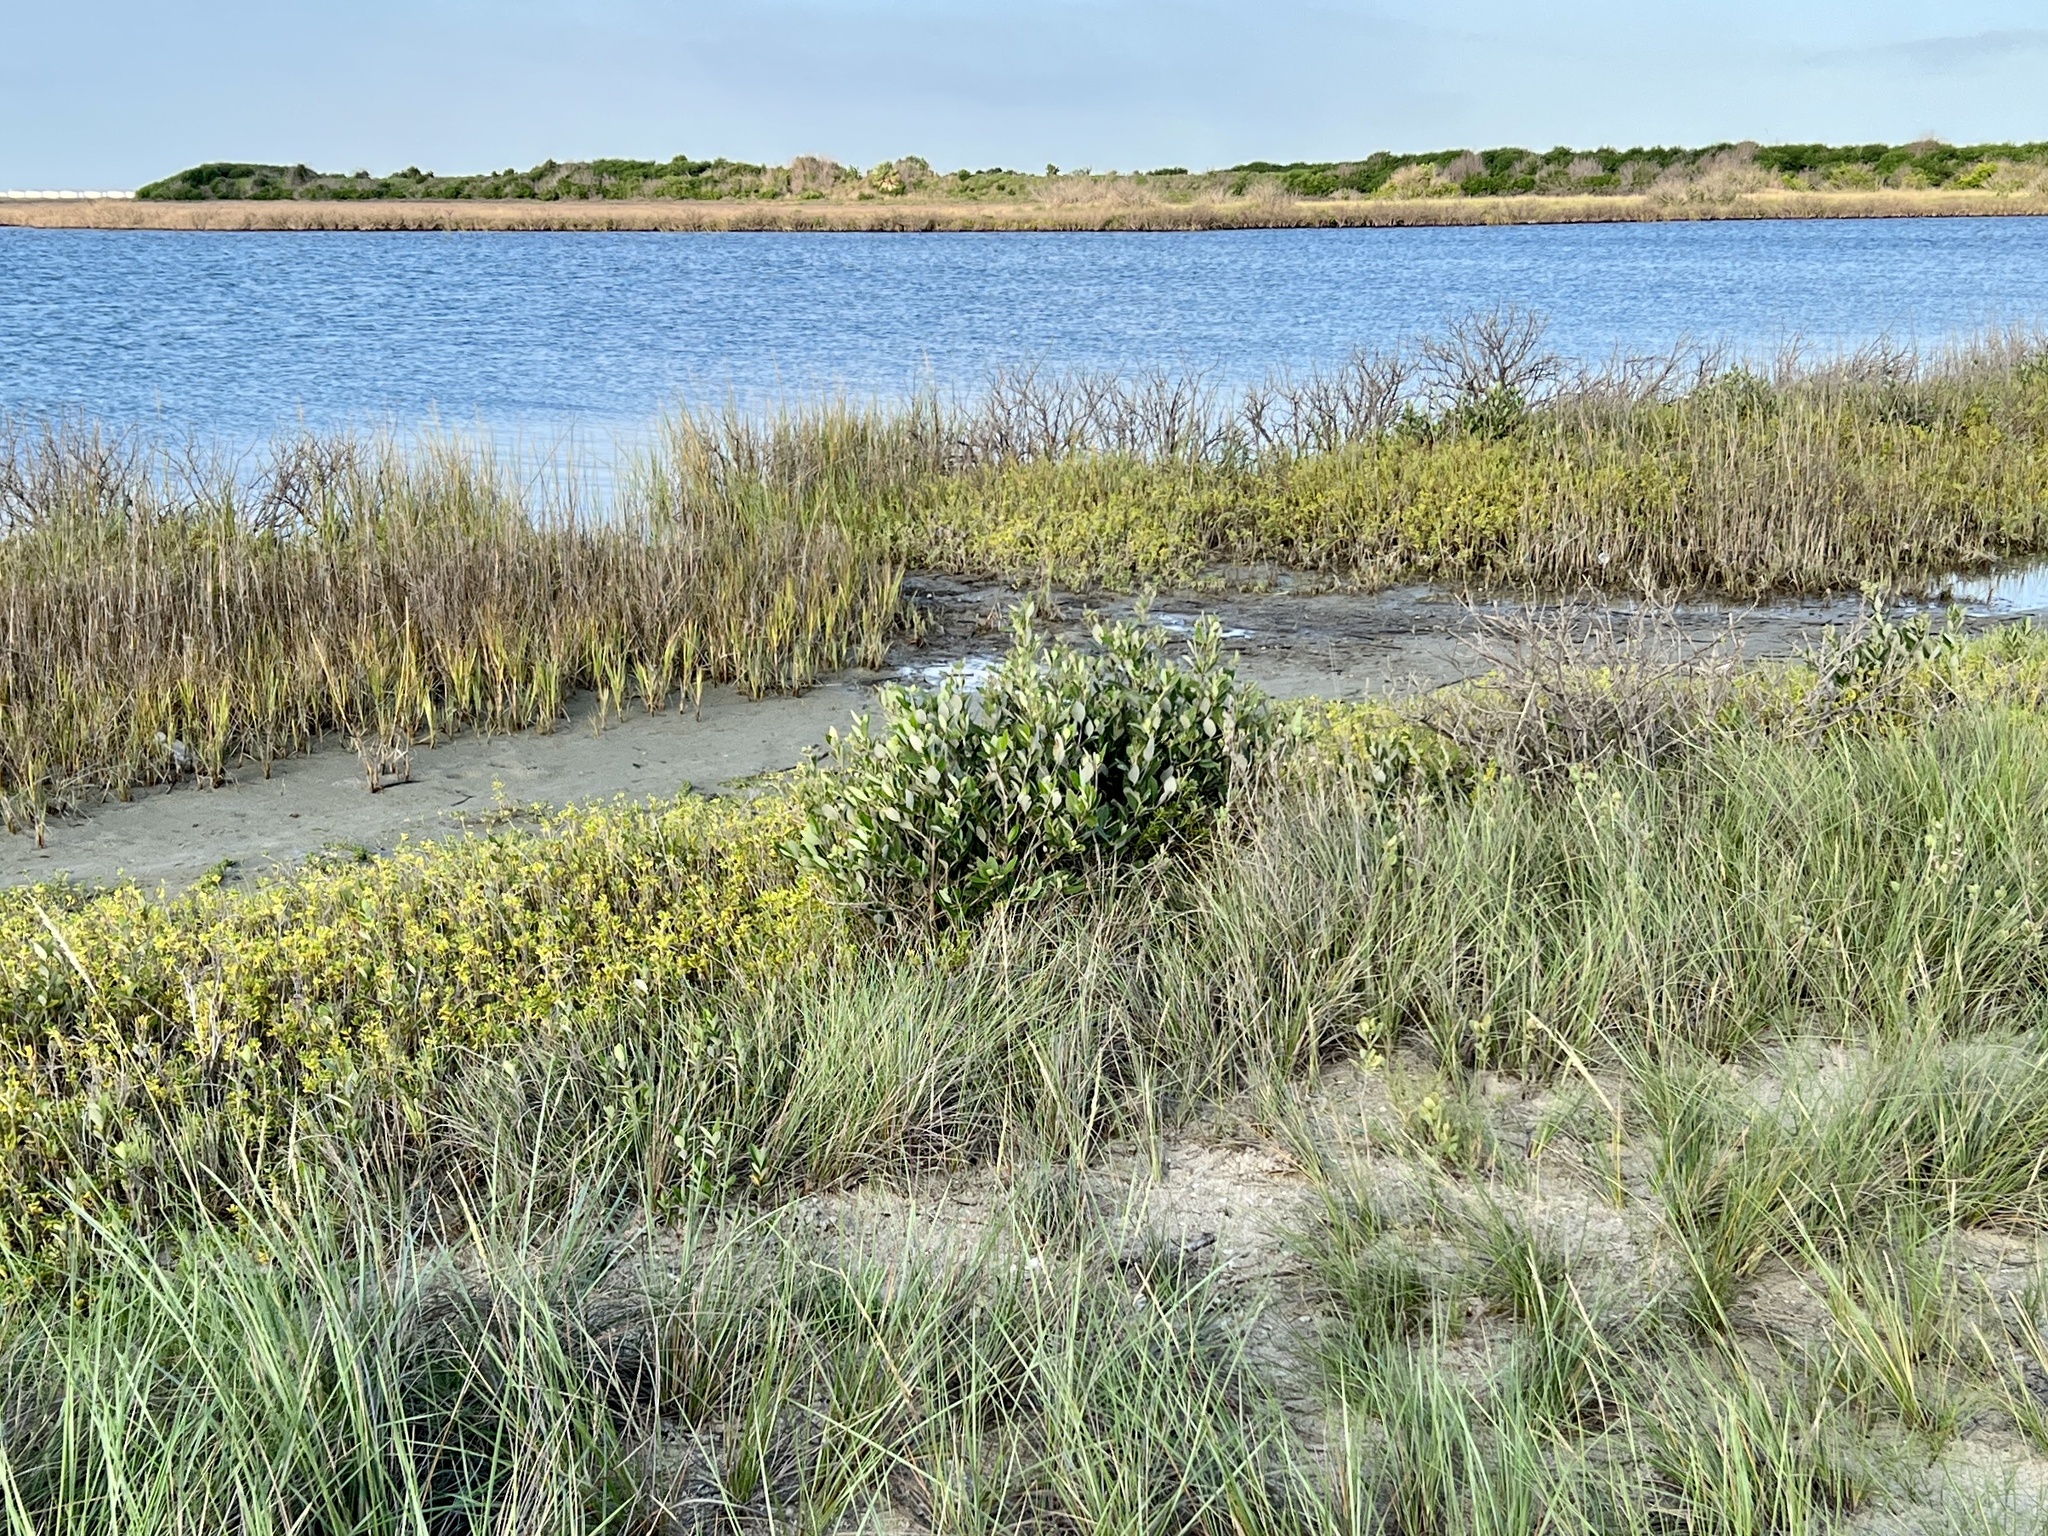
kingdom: Plantae
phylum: Tracheophyta
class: Magnoliopsida
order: Lamiales
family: Acanthaceae
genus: Avicennia
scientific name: Avicennia germinans
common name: Black mangrove
